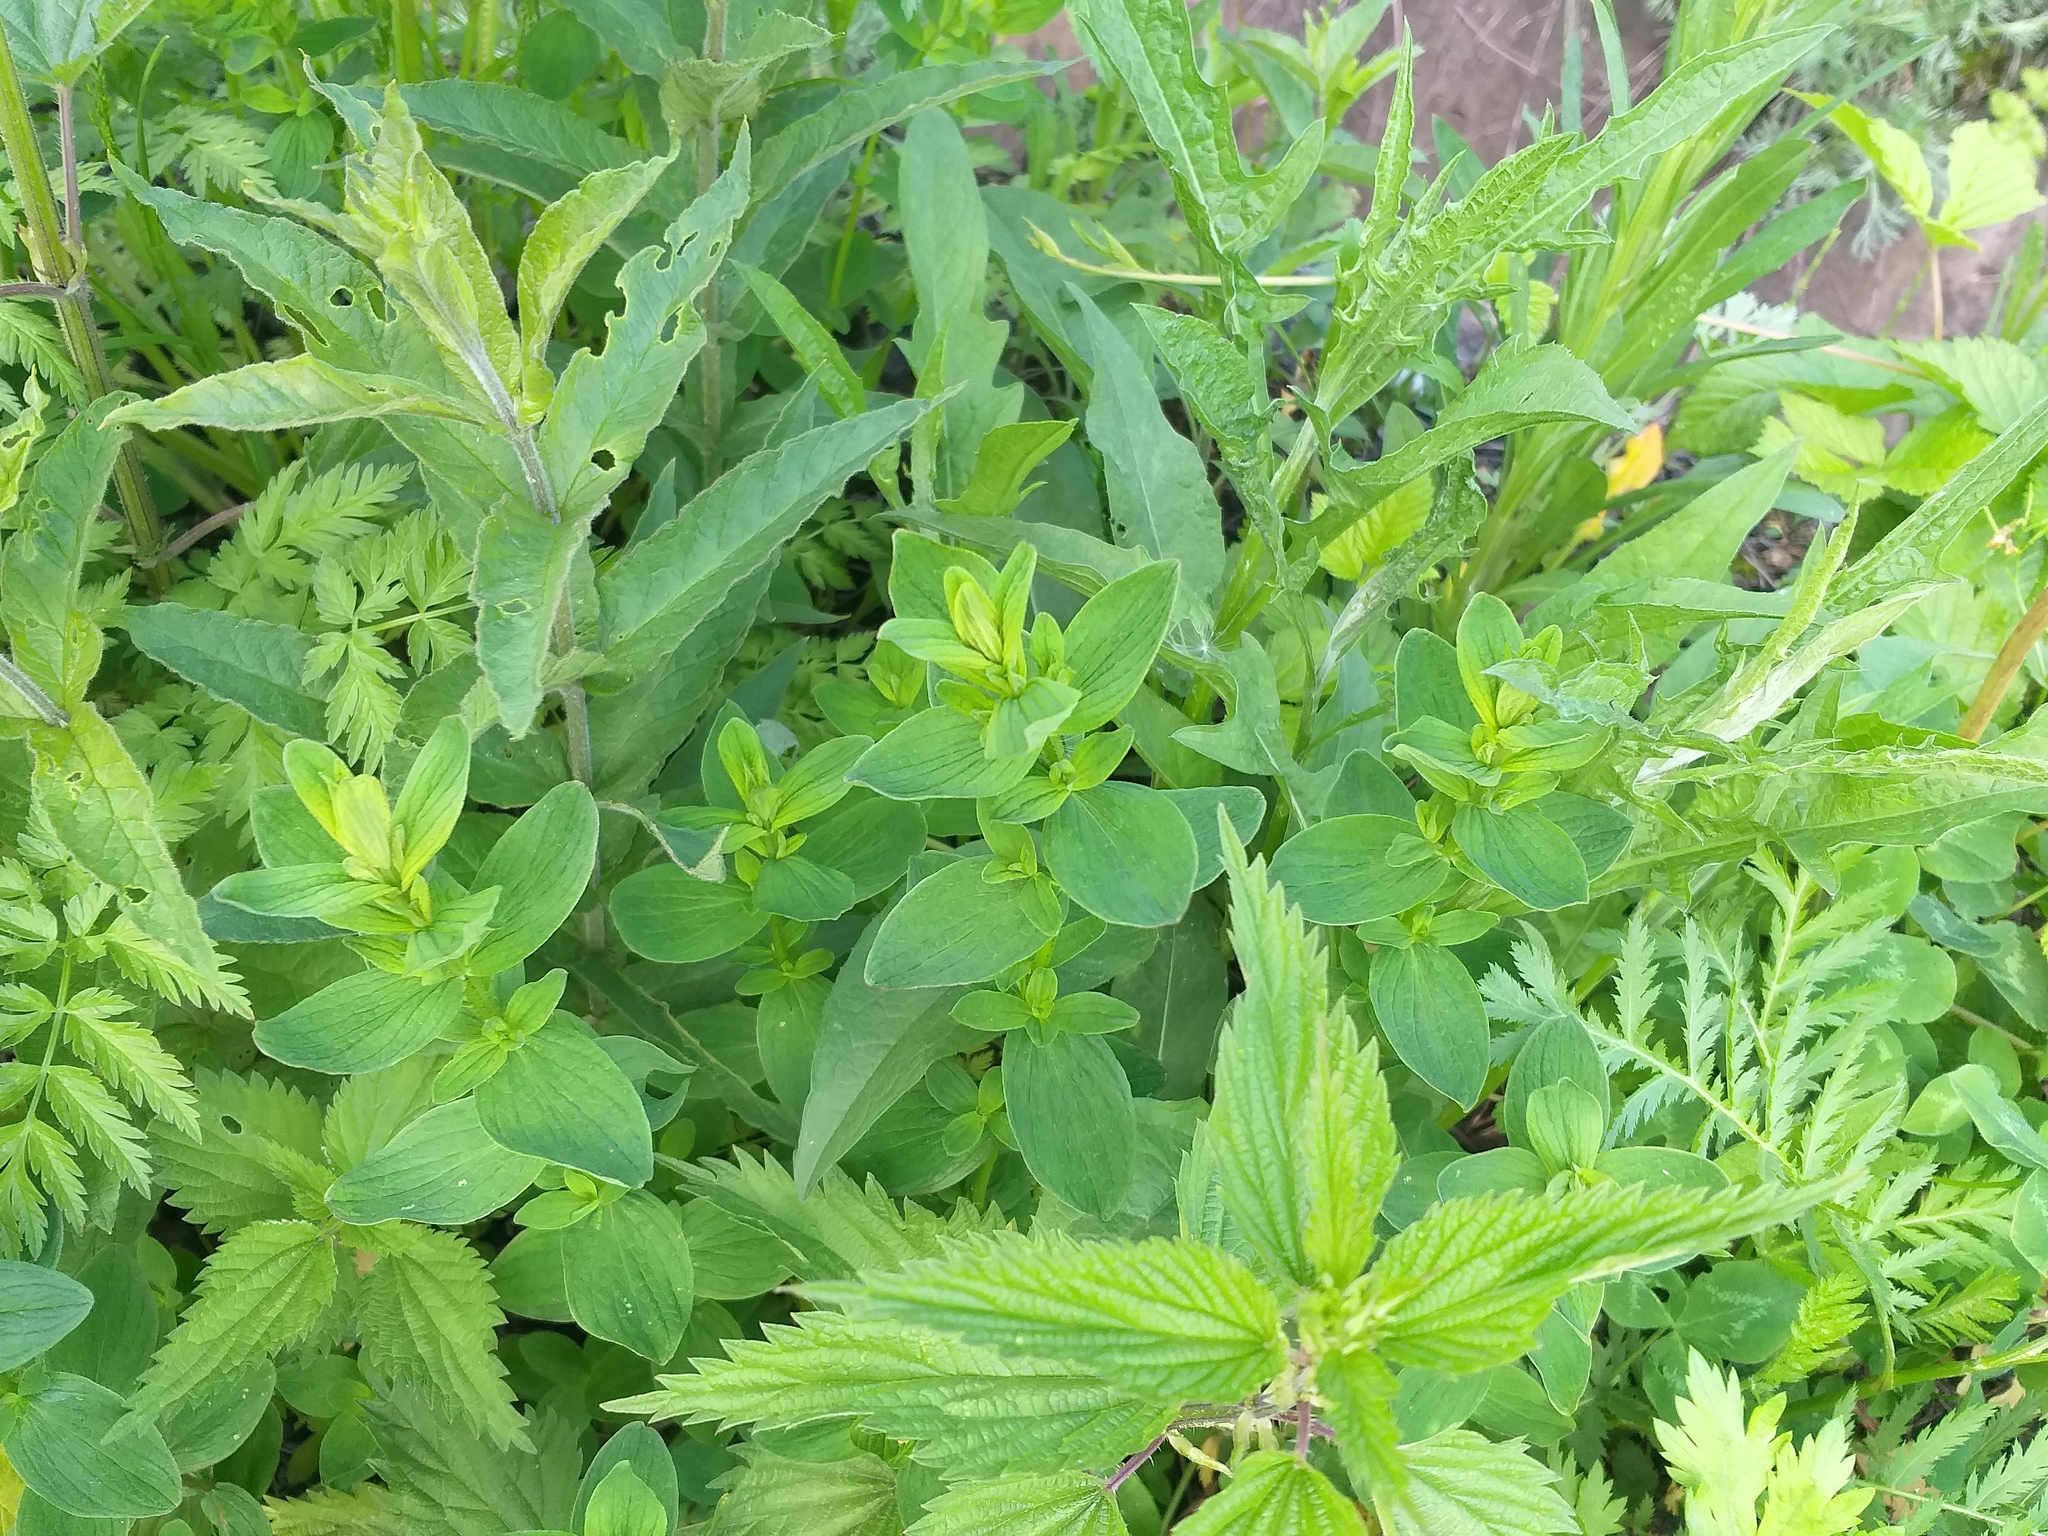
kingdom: Plantae
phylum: Tracheophyta
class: Magnoliopsida
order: Malpighiales
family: Hypericaceae
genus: Hypericum
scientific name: Hypericum maculatum
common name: Imperforate st. john's-wort
